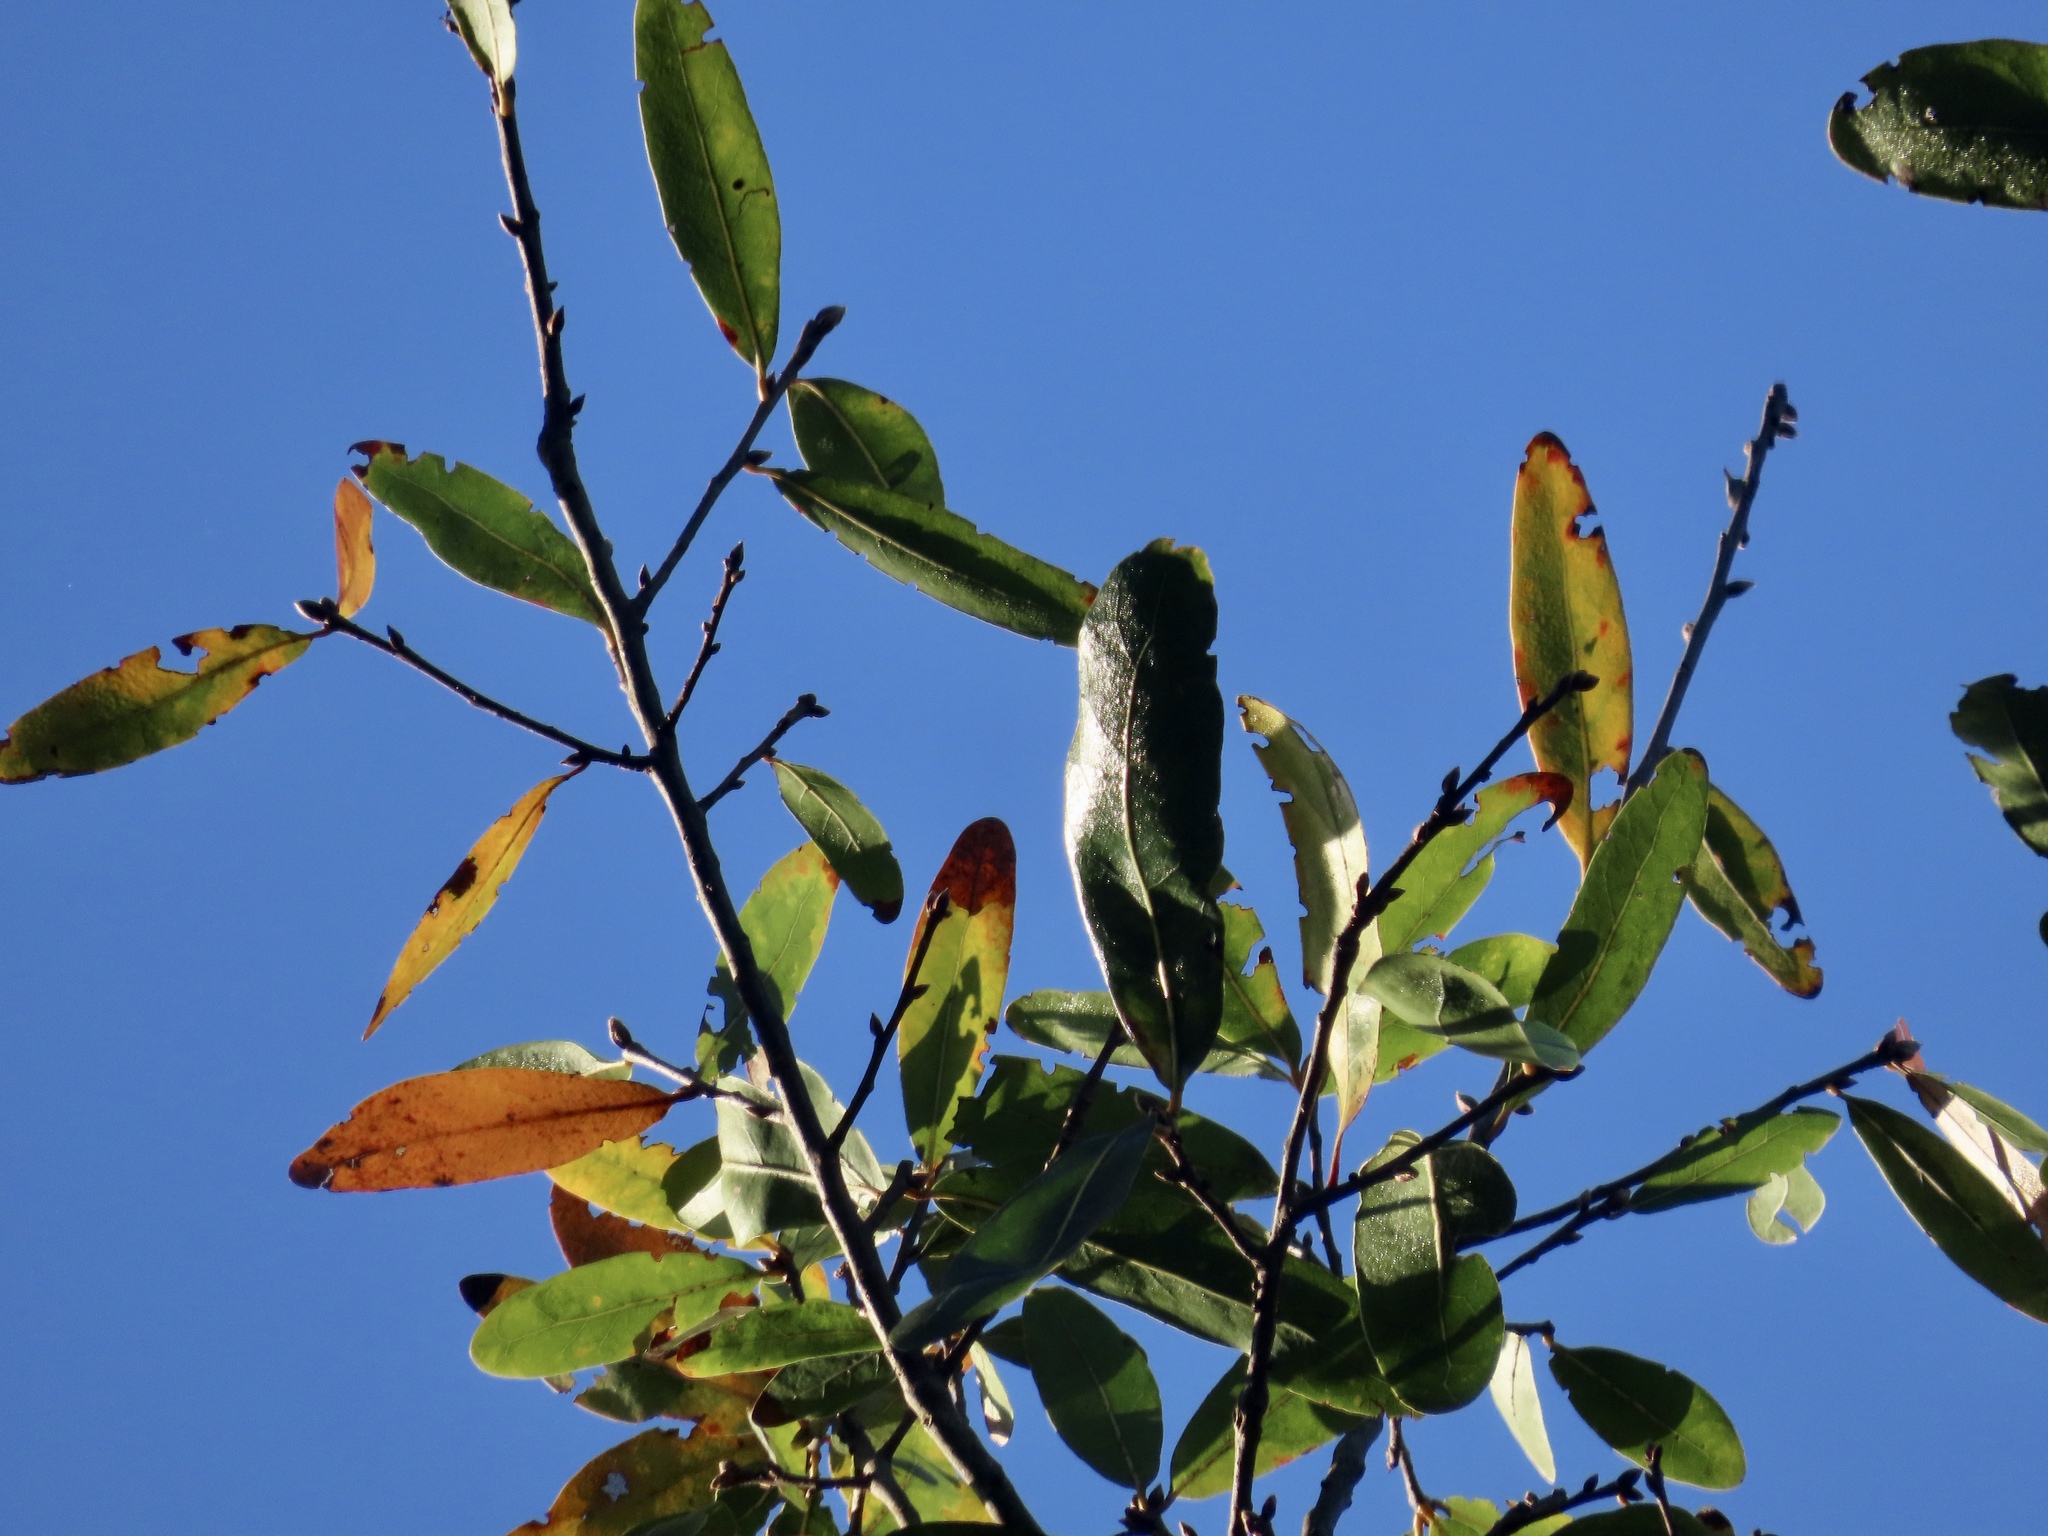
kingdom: Plantae
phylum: Tracheophyta
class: Magnoliopsida
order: Fagales
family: Fagaceae
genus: Quercus
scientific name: Quercus laurifolia
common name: Swamp laurel oak
